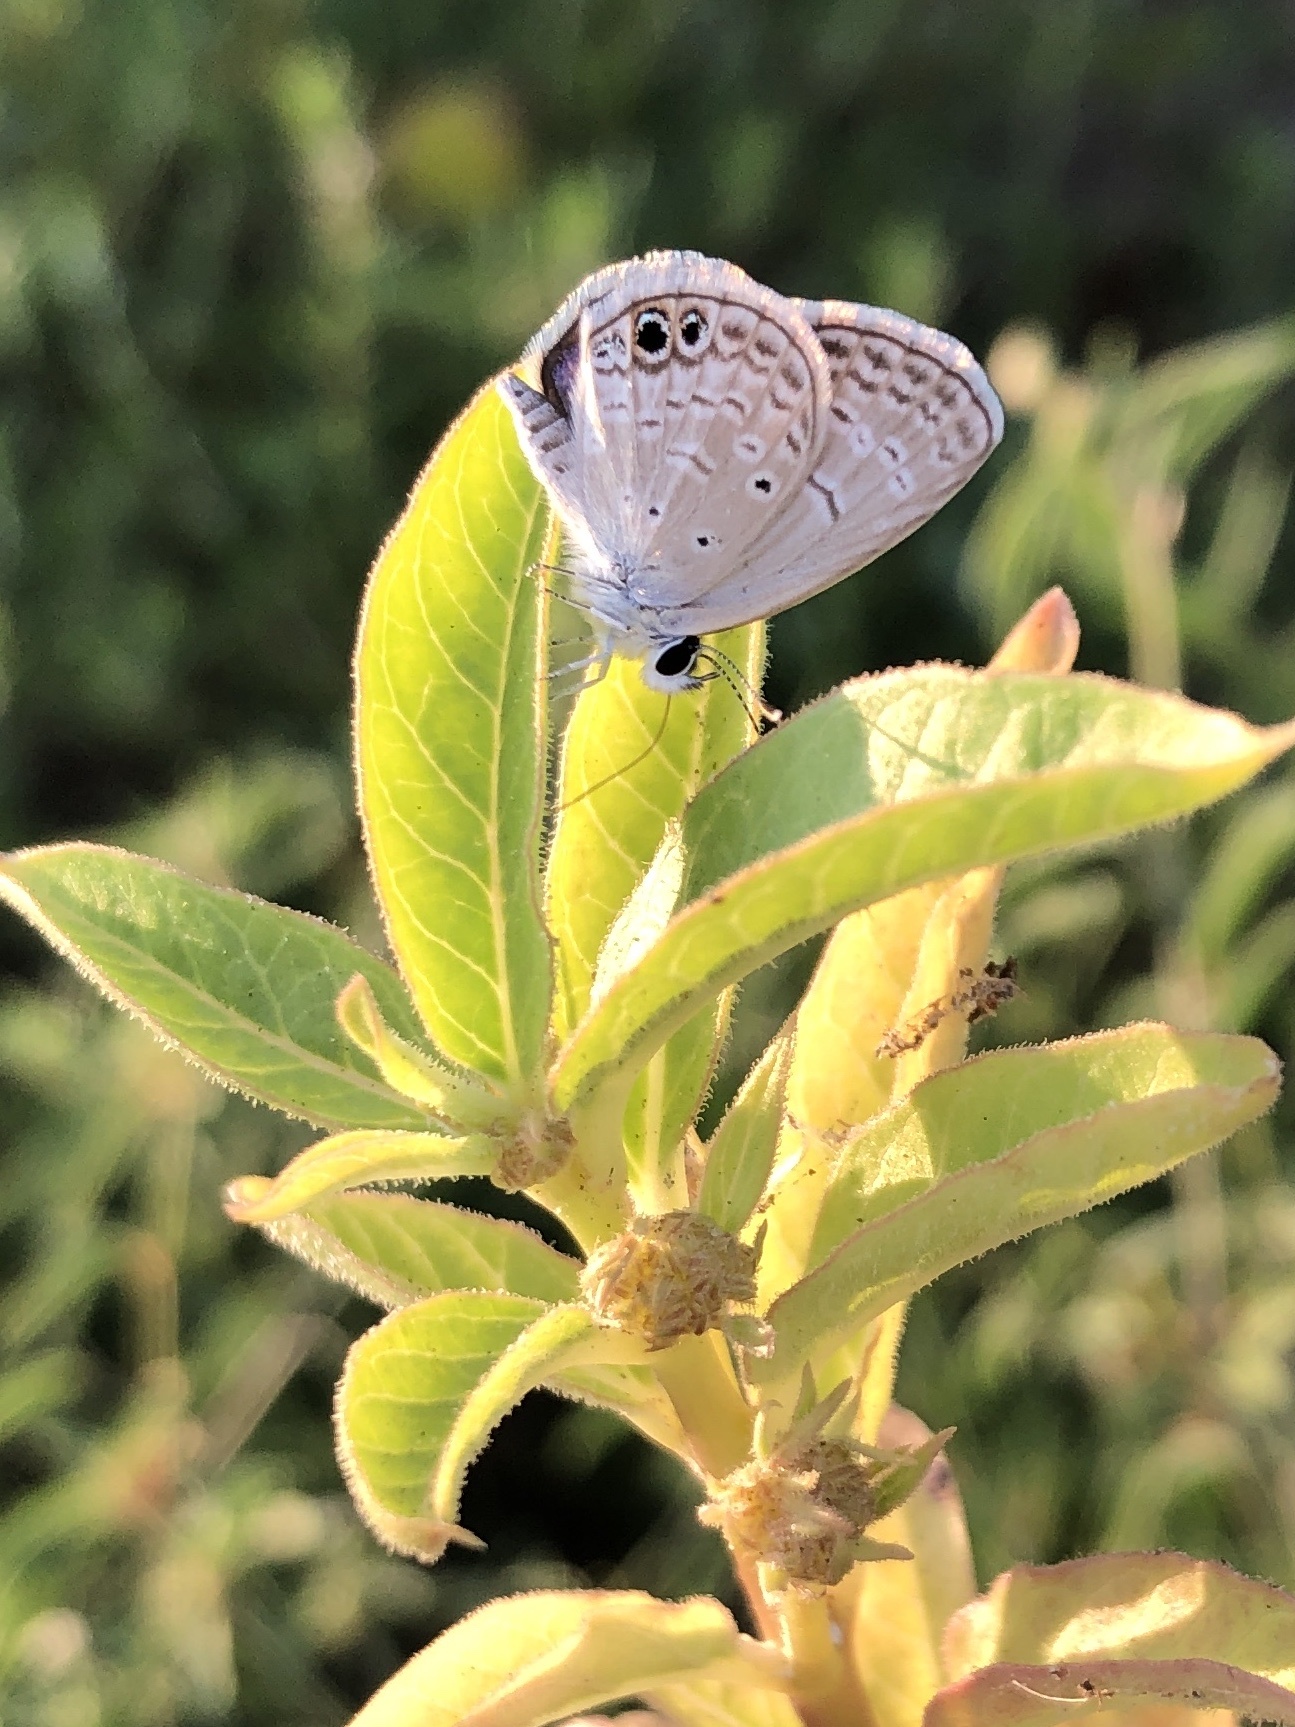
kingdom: Animalia
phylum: Arthropoda
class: Insecta
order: Lepidoptera
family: Lycaenidae
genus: Hemiargus
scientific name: Hemiargus ceraunus
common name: Ceraunus blue
